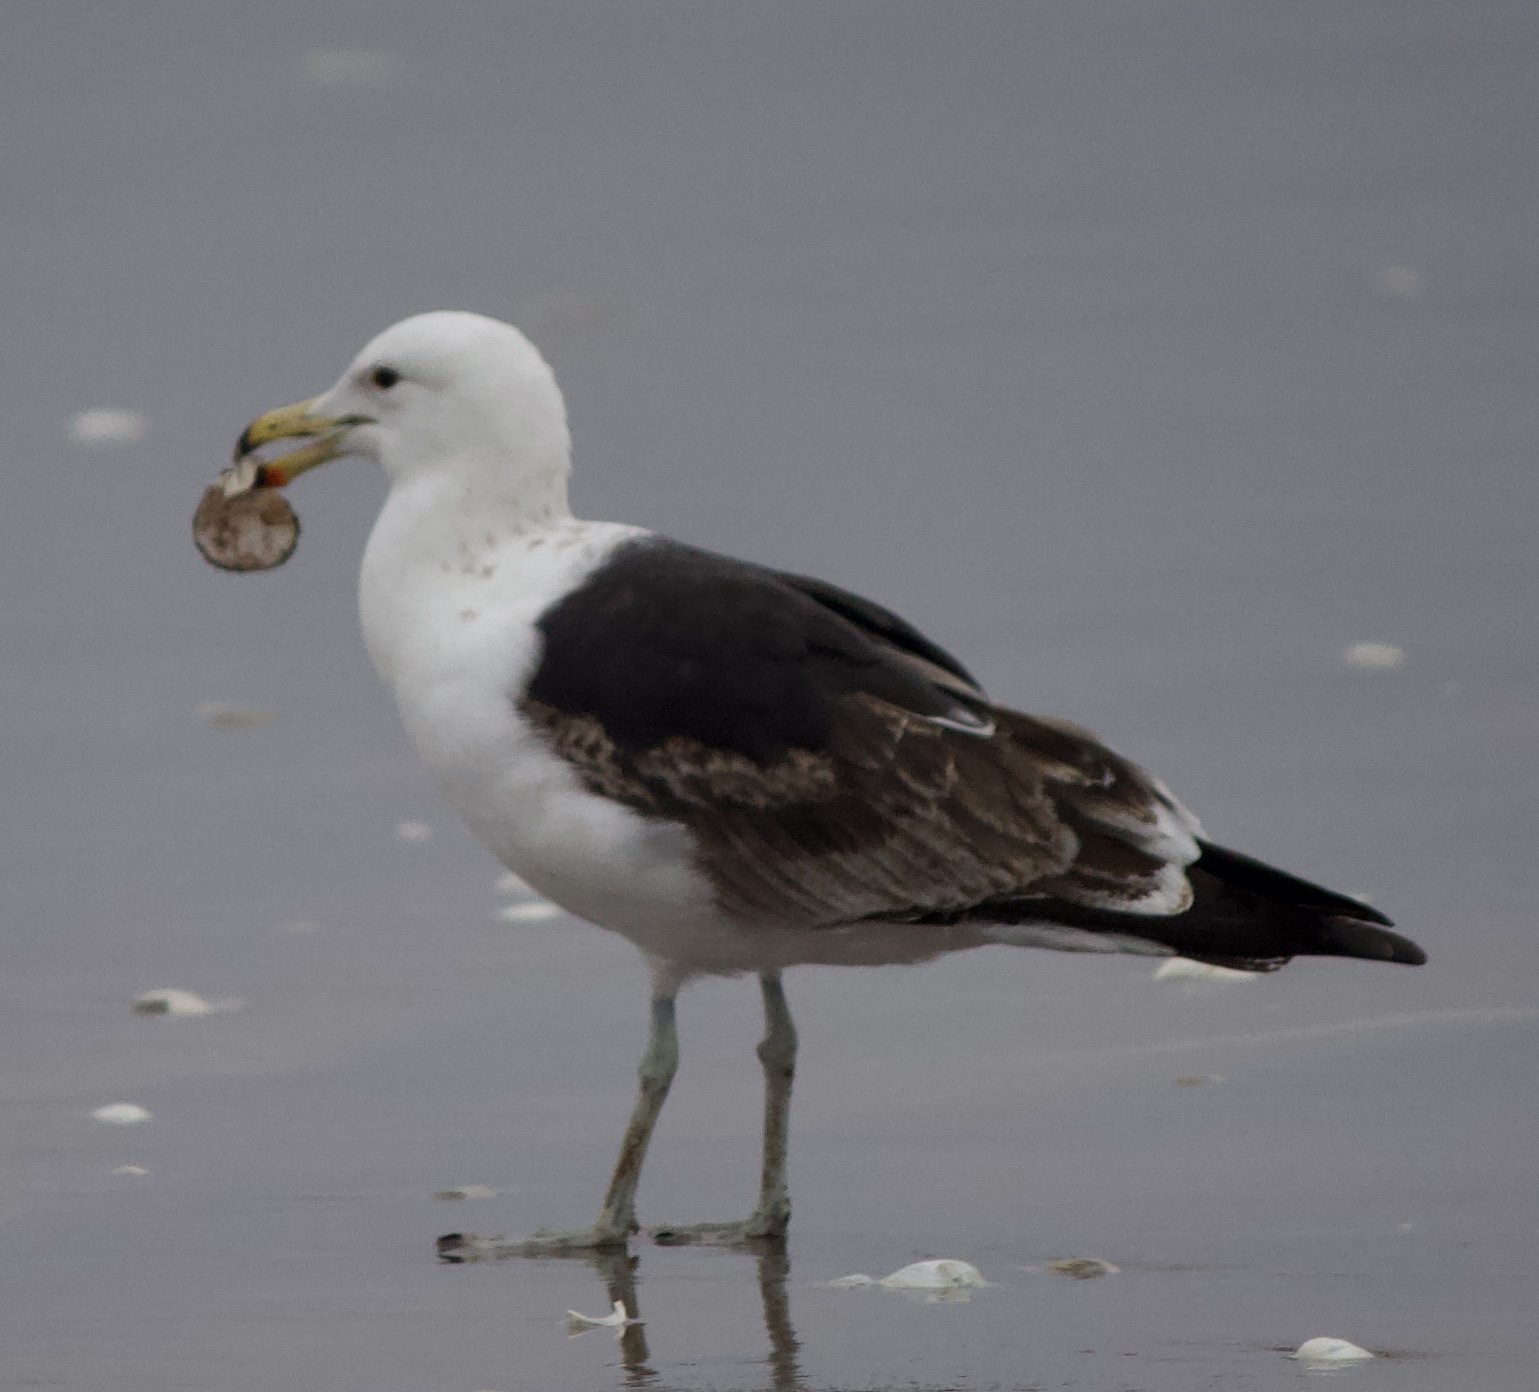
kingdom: Animalia
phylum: Chordata
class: Aves
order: Charadriiformes
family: Laridae
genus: Larus
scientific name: Larus dominicanus
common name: Kelp gull
